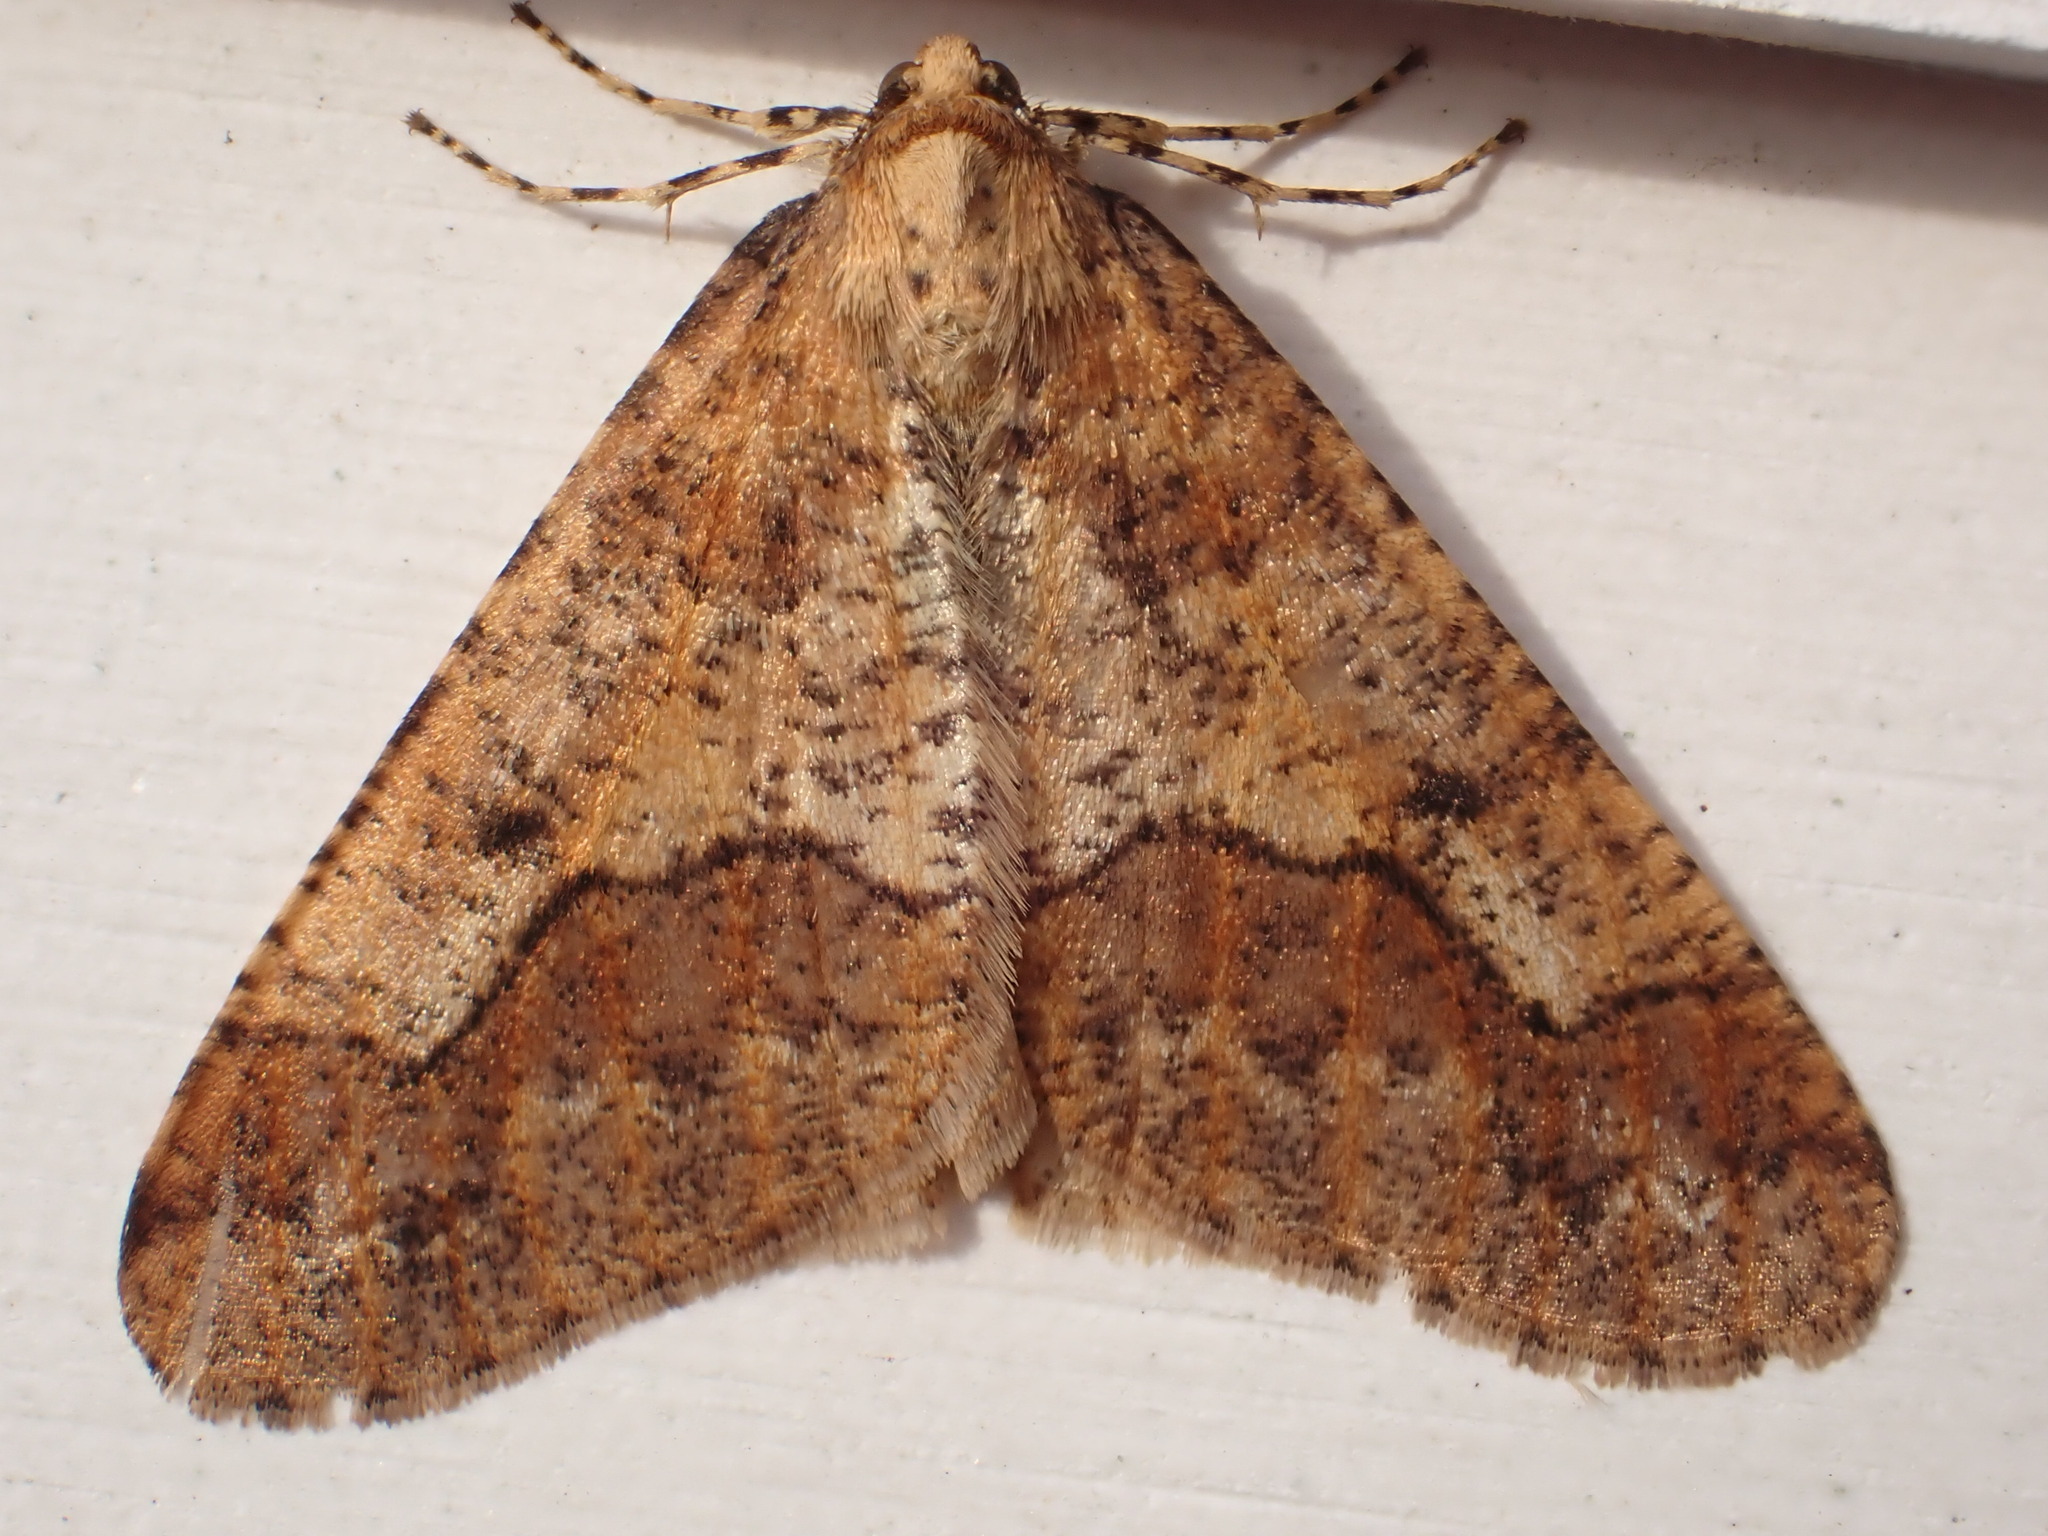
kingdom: Animalia
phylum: Arthropoda
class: Insecta
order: Lepidoptera
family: Geometridae
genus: Erannis
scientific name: Erannis defoliaria
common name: Mottled umber
